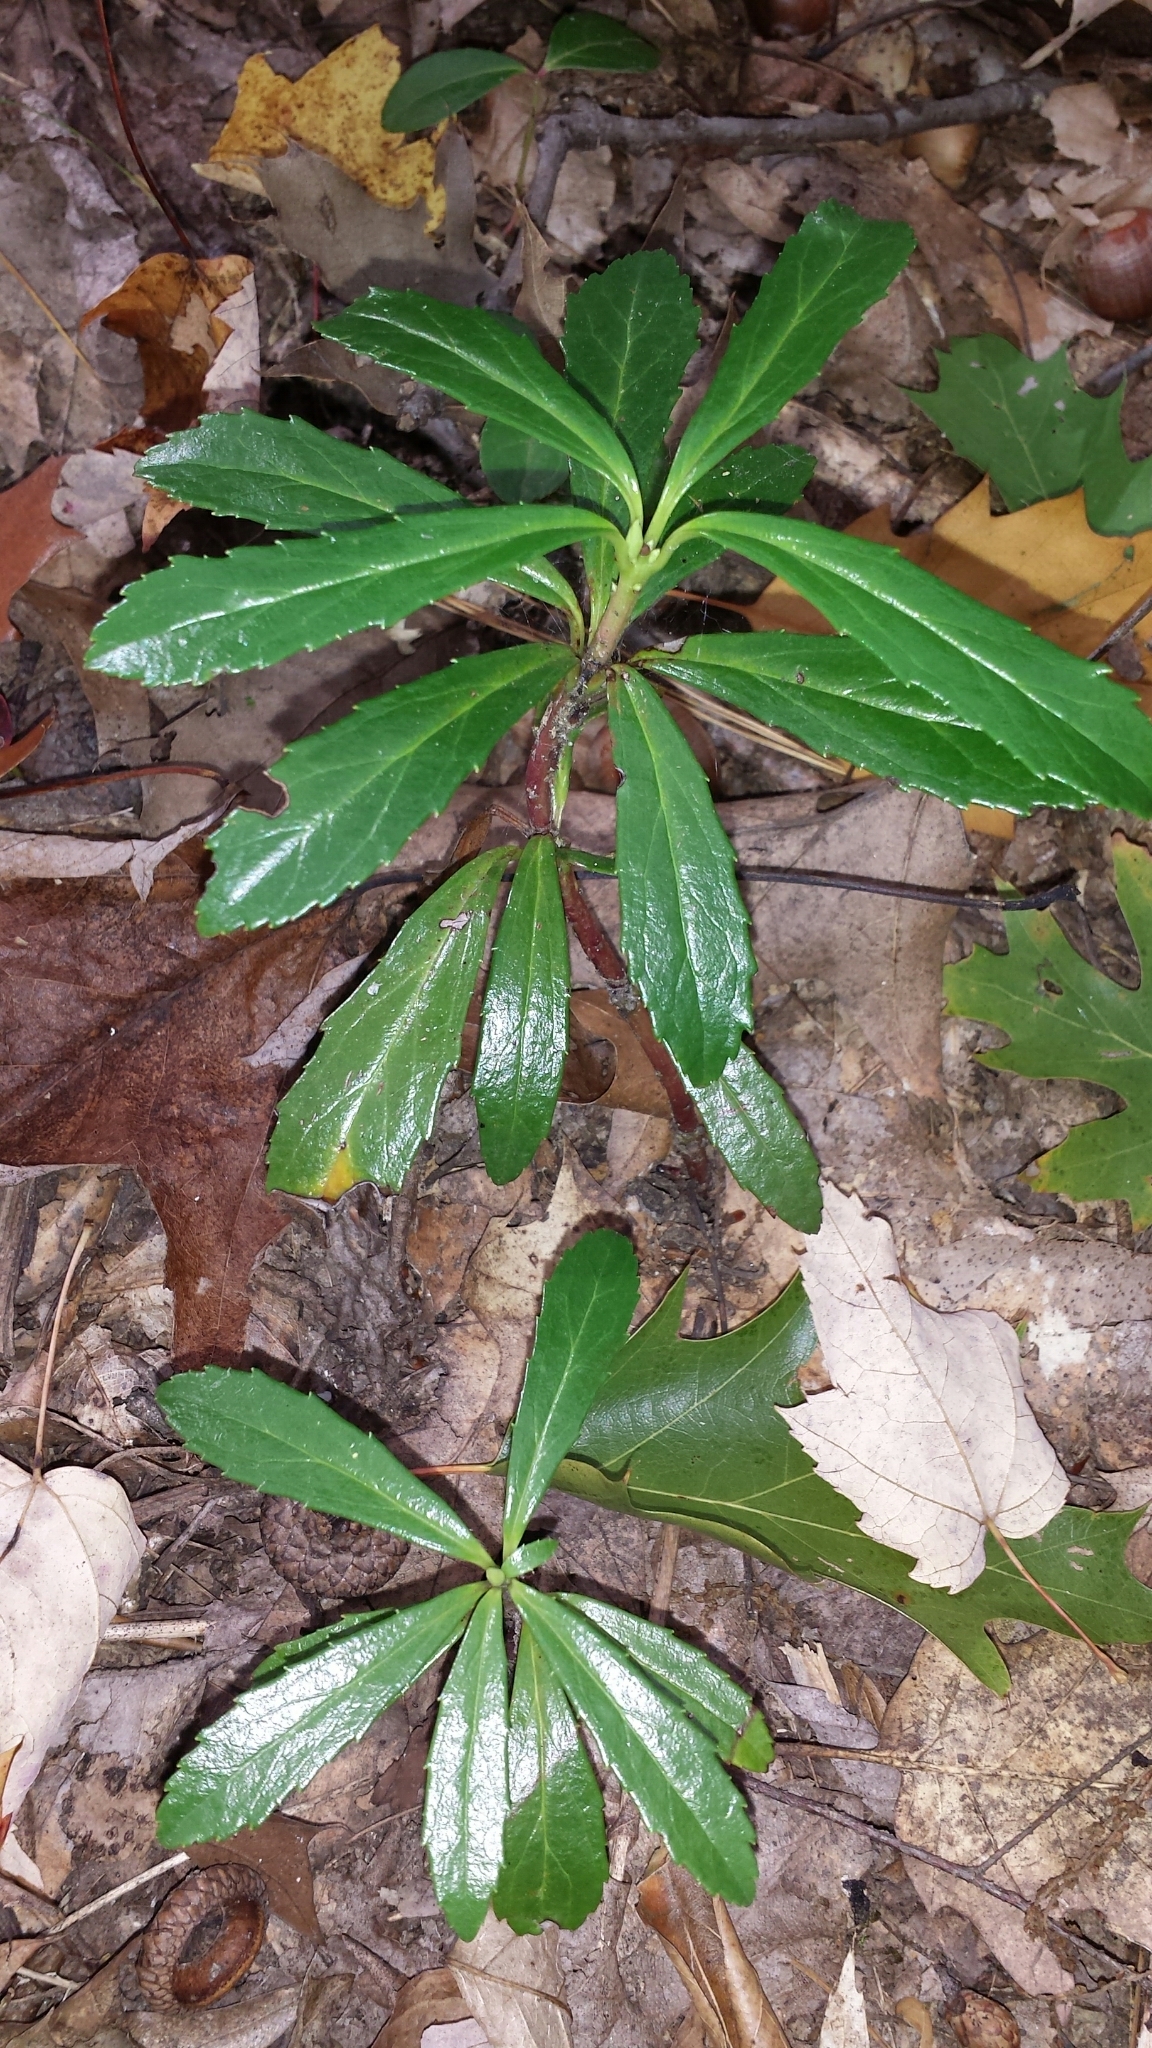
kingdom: Plantae
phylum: Tracheophyta
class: Magnoliopsida
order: Ericales
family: Ericaceae
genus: Chimaphila
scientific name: Chimaphila umbellata
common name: Pipsissewa
